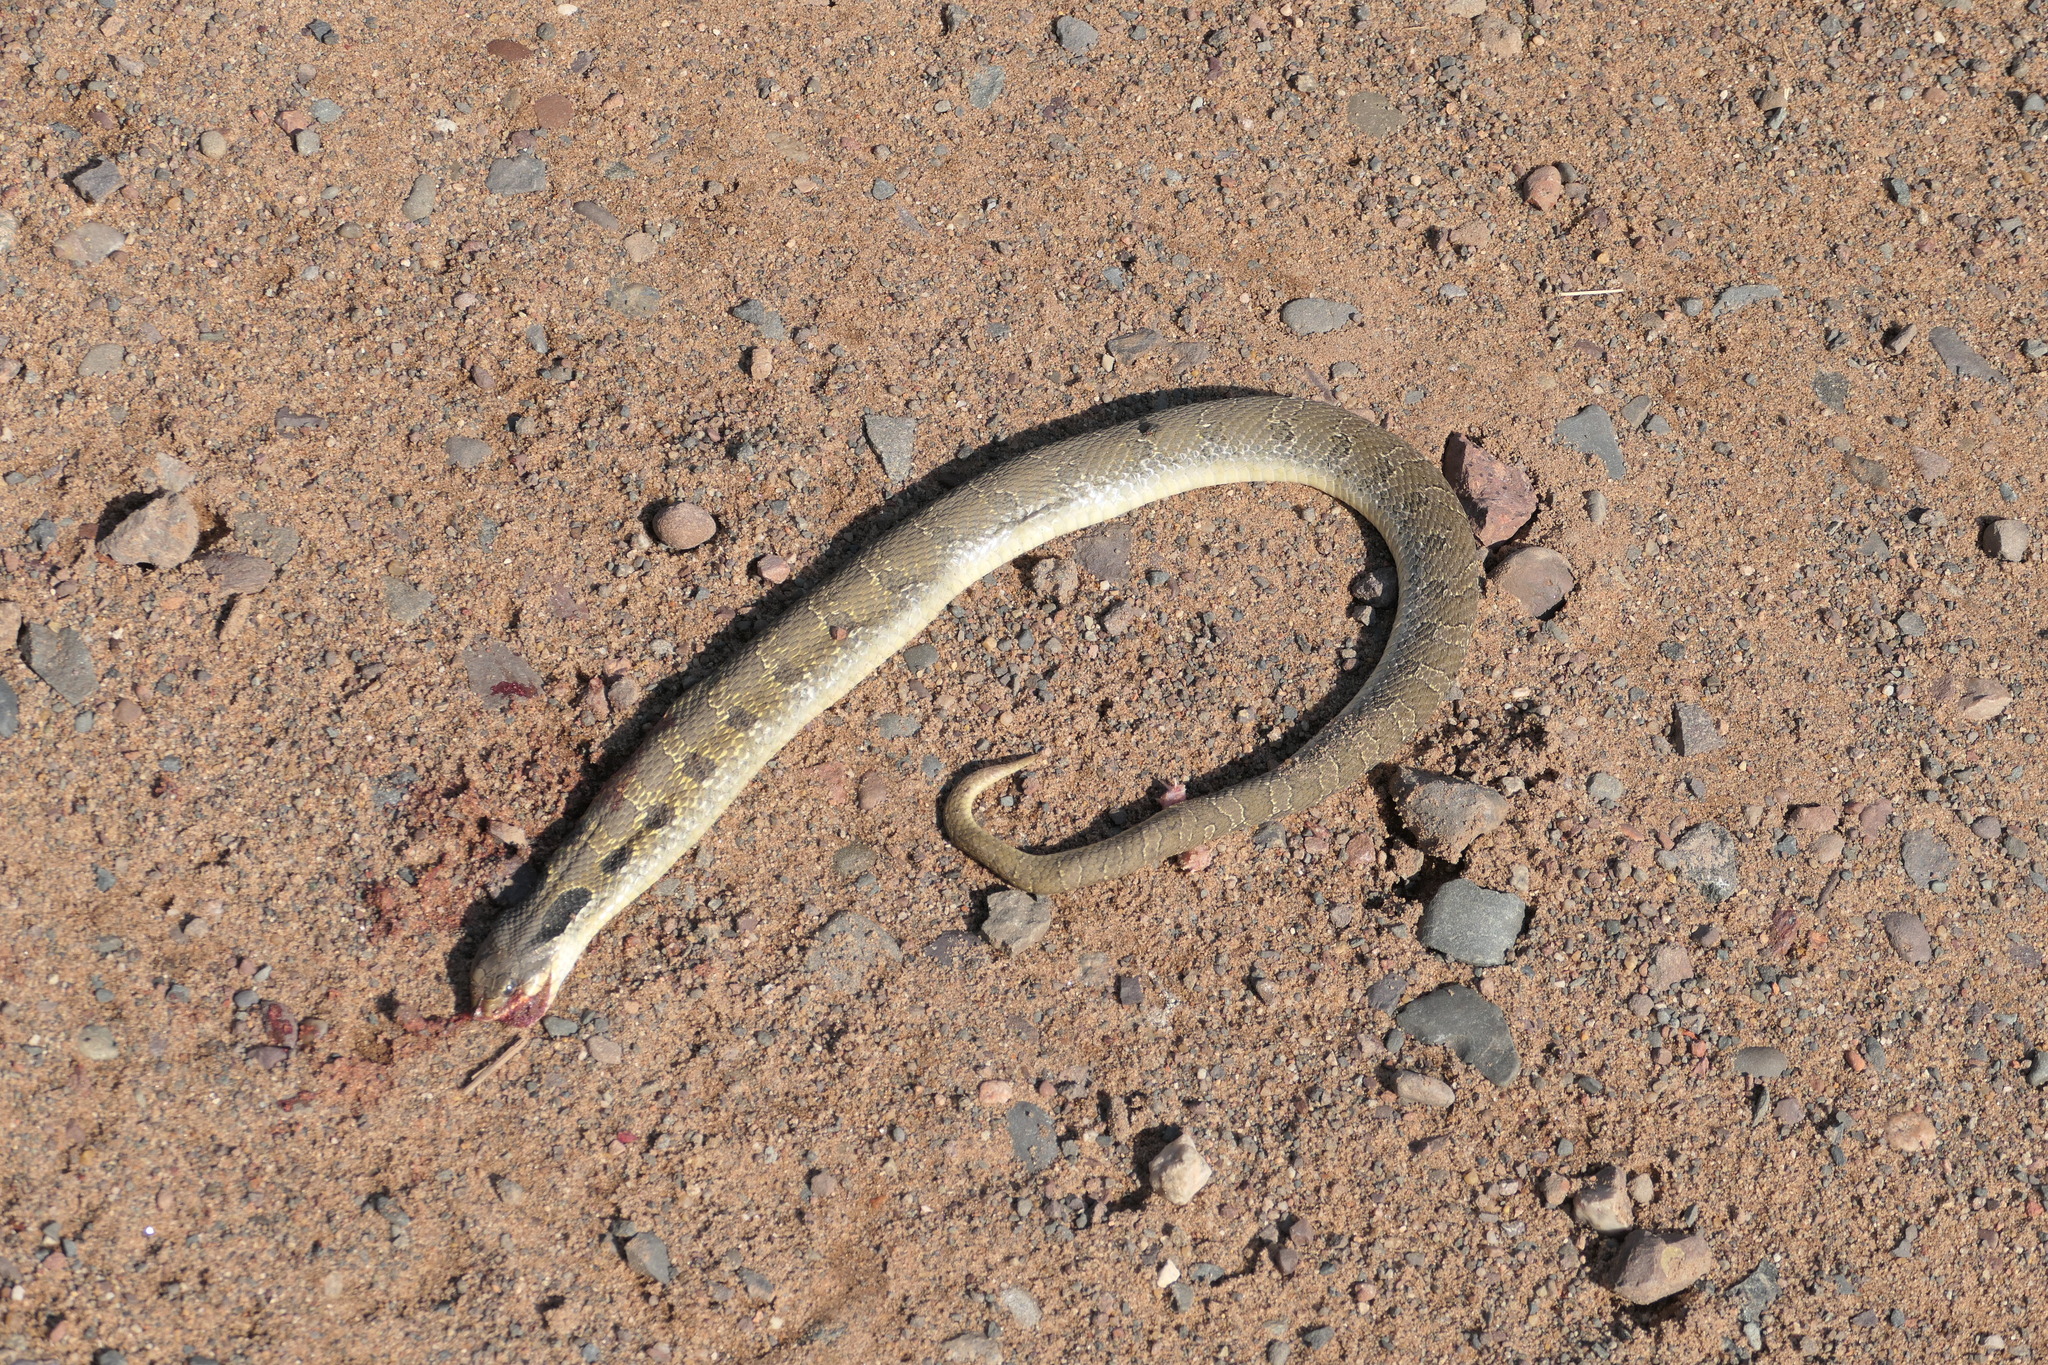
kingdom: Animalia
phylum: Chordata
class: Squamata
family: Colubridae
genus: Heterodon
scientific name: Heterodon platirhinos
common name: Eastern hognose snake
